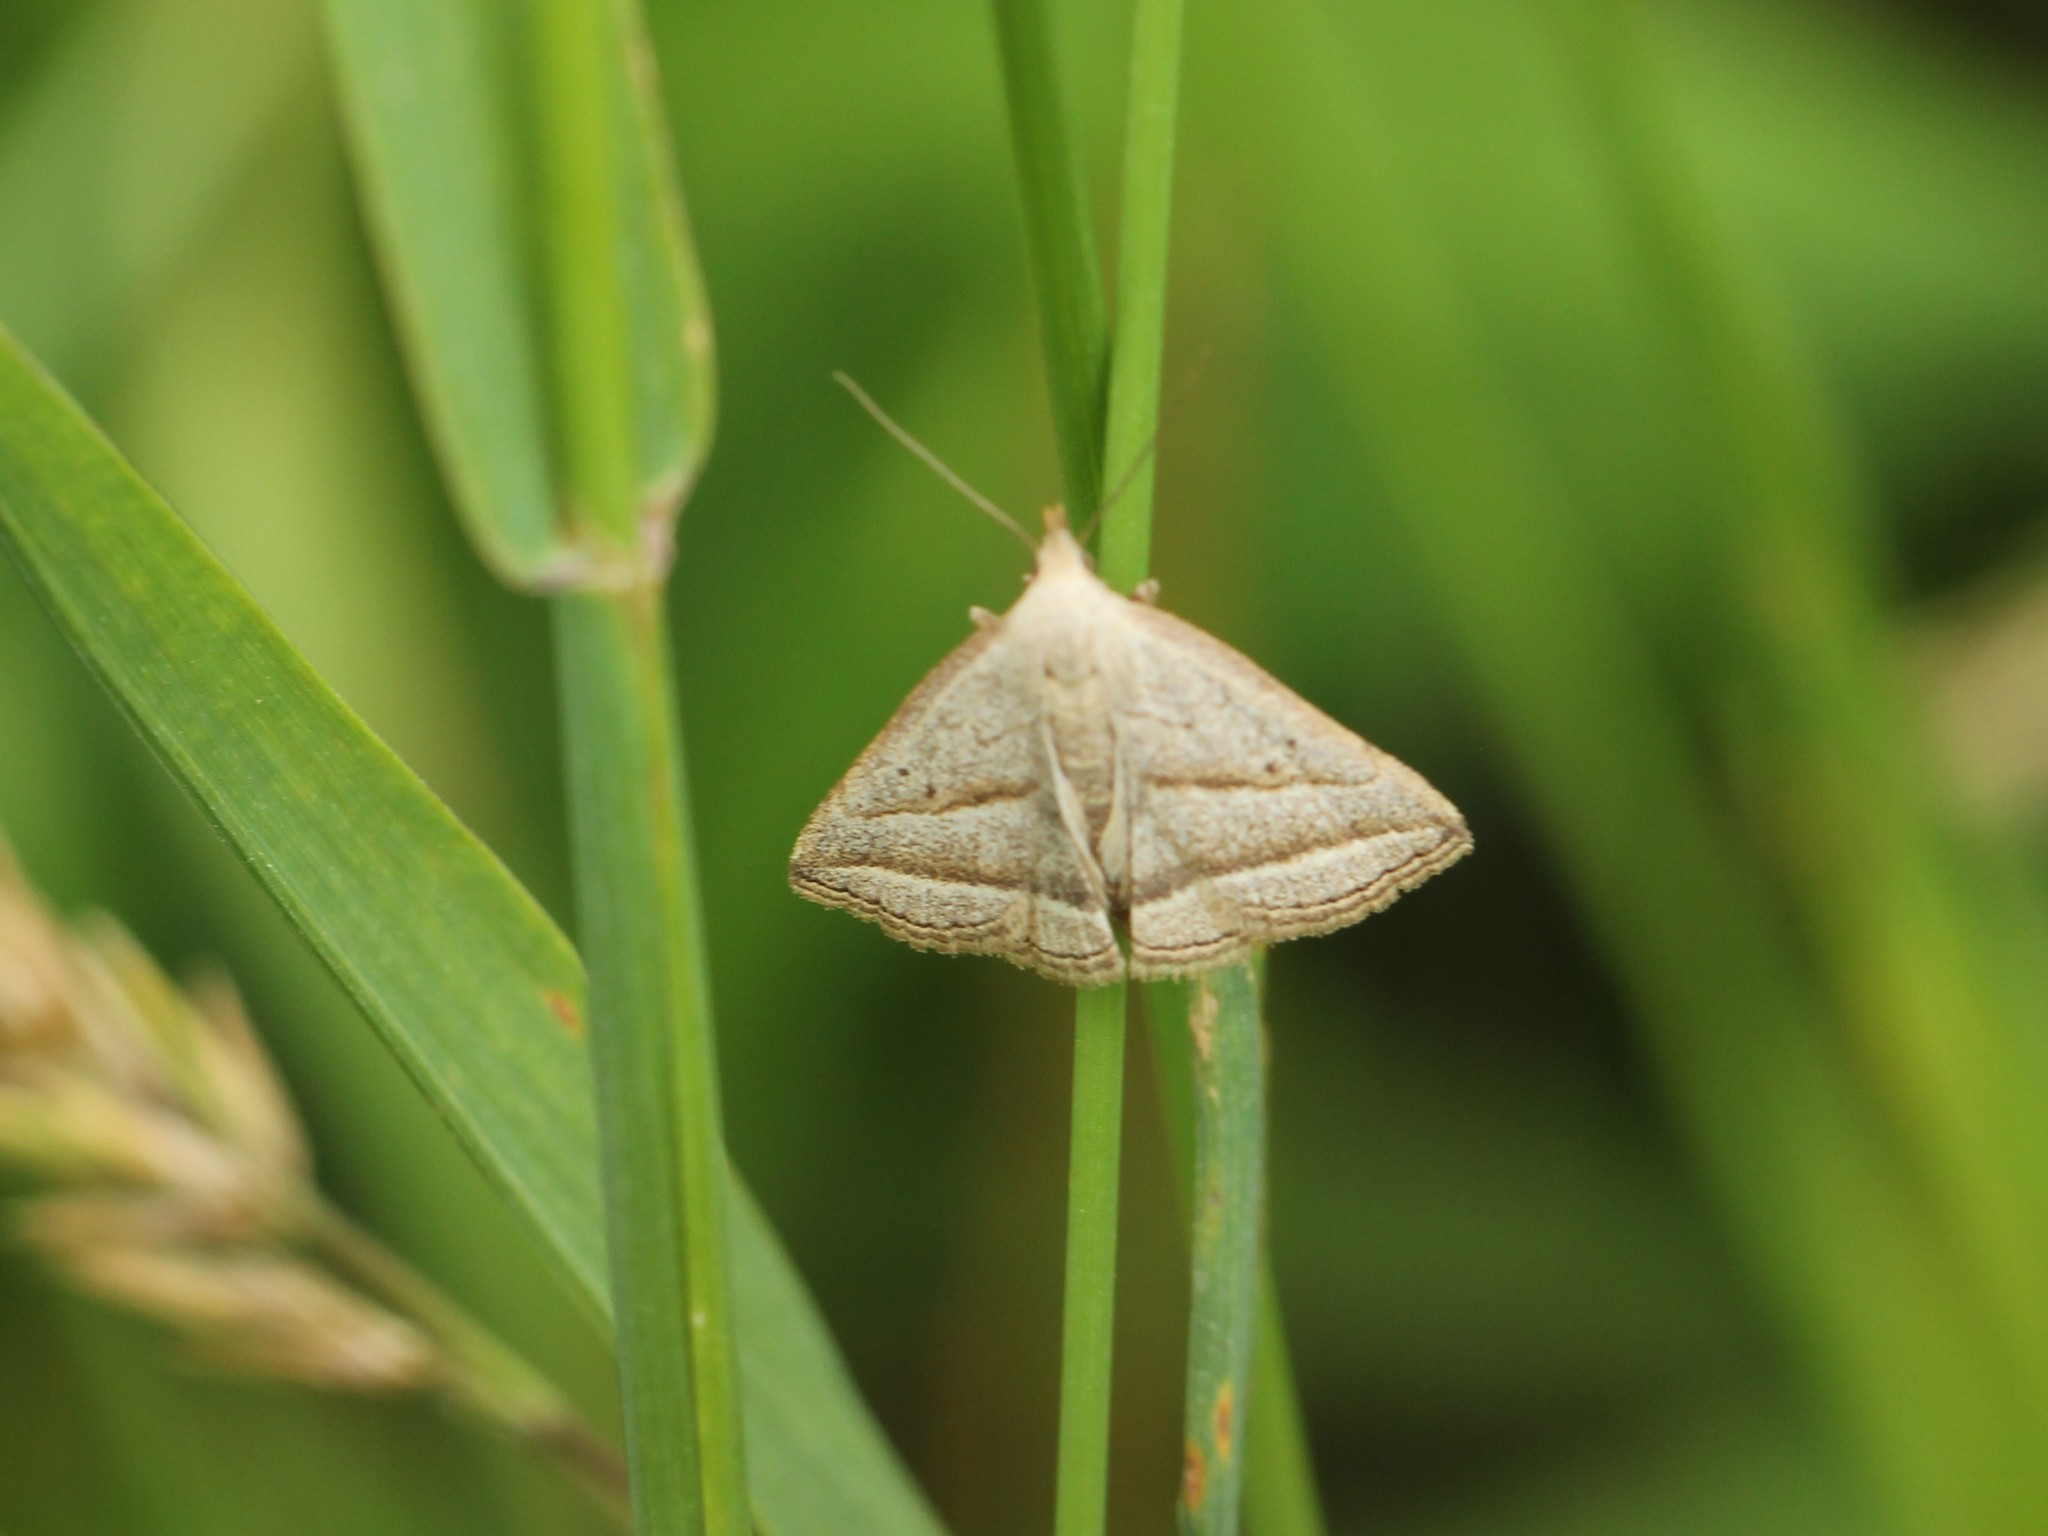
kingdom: Animalia
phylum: Arthropoda
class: Insecta
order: Lepidoptera
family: Erebidae
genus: Macrochilo
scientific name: Macrochilo absorptalis
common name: Slant-lined owlet
